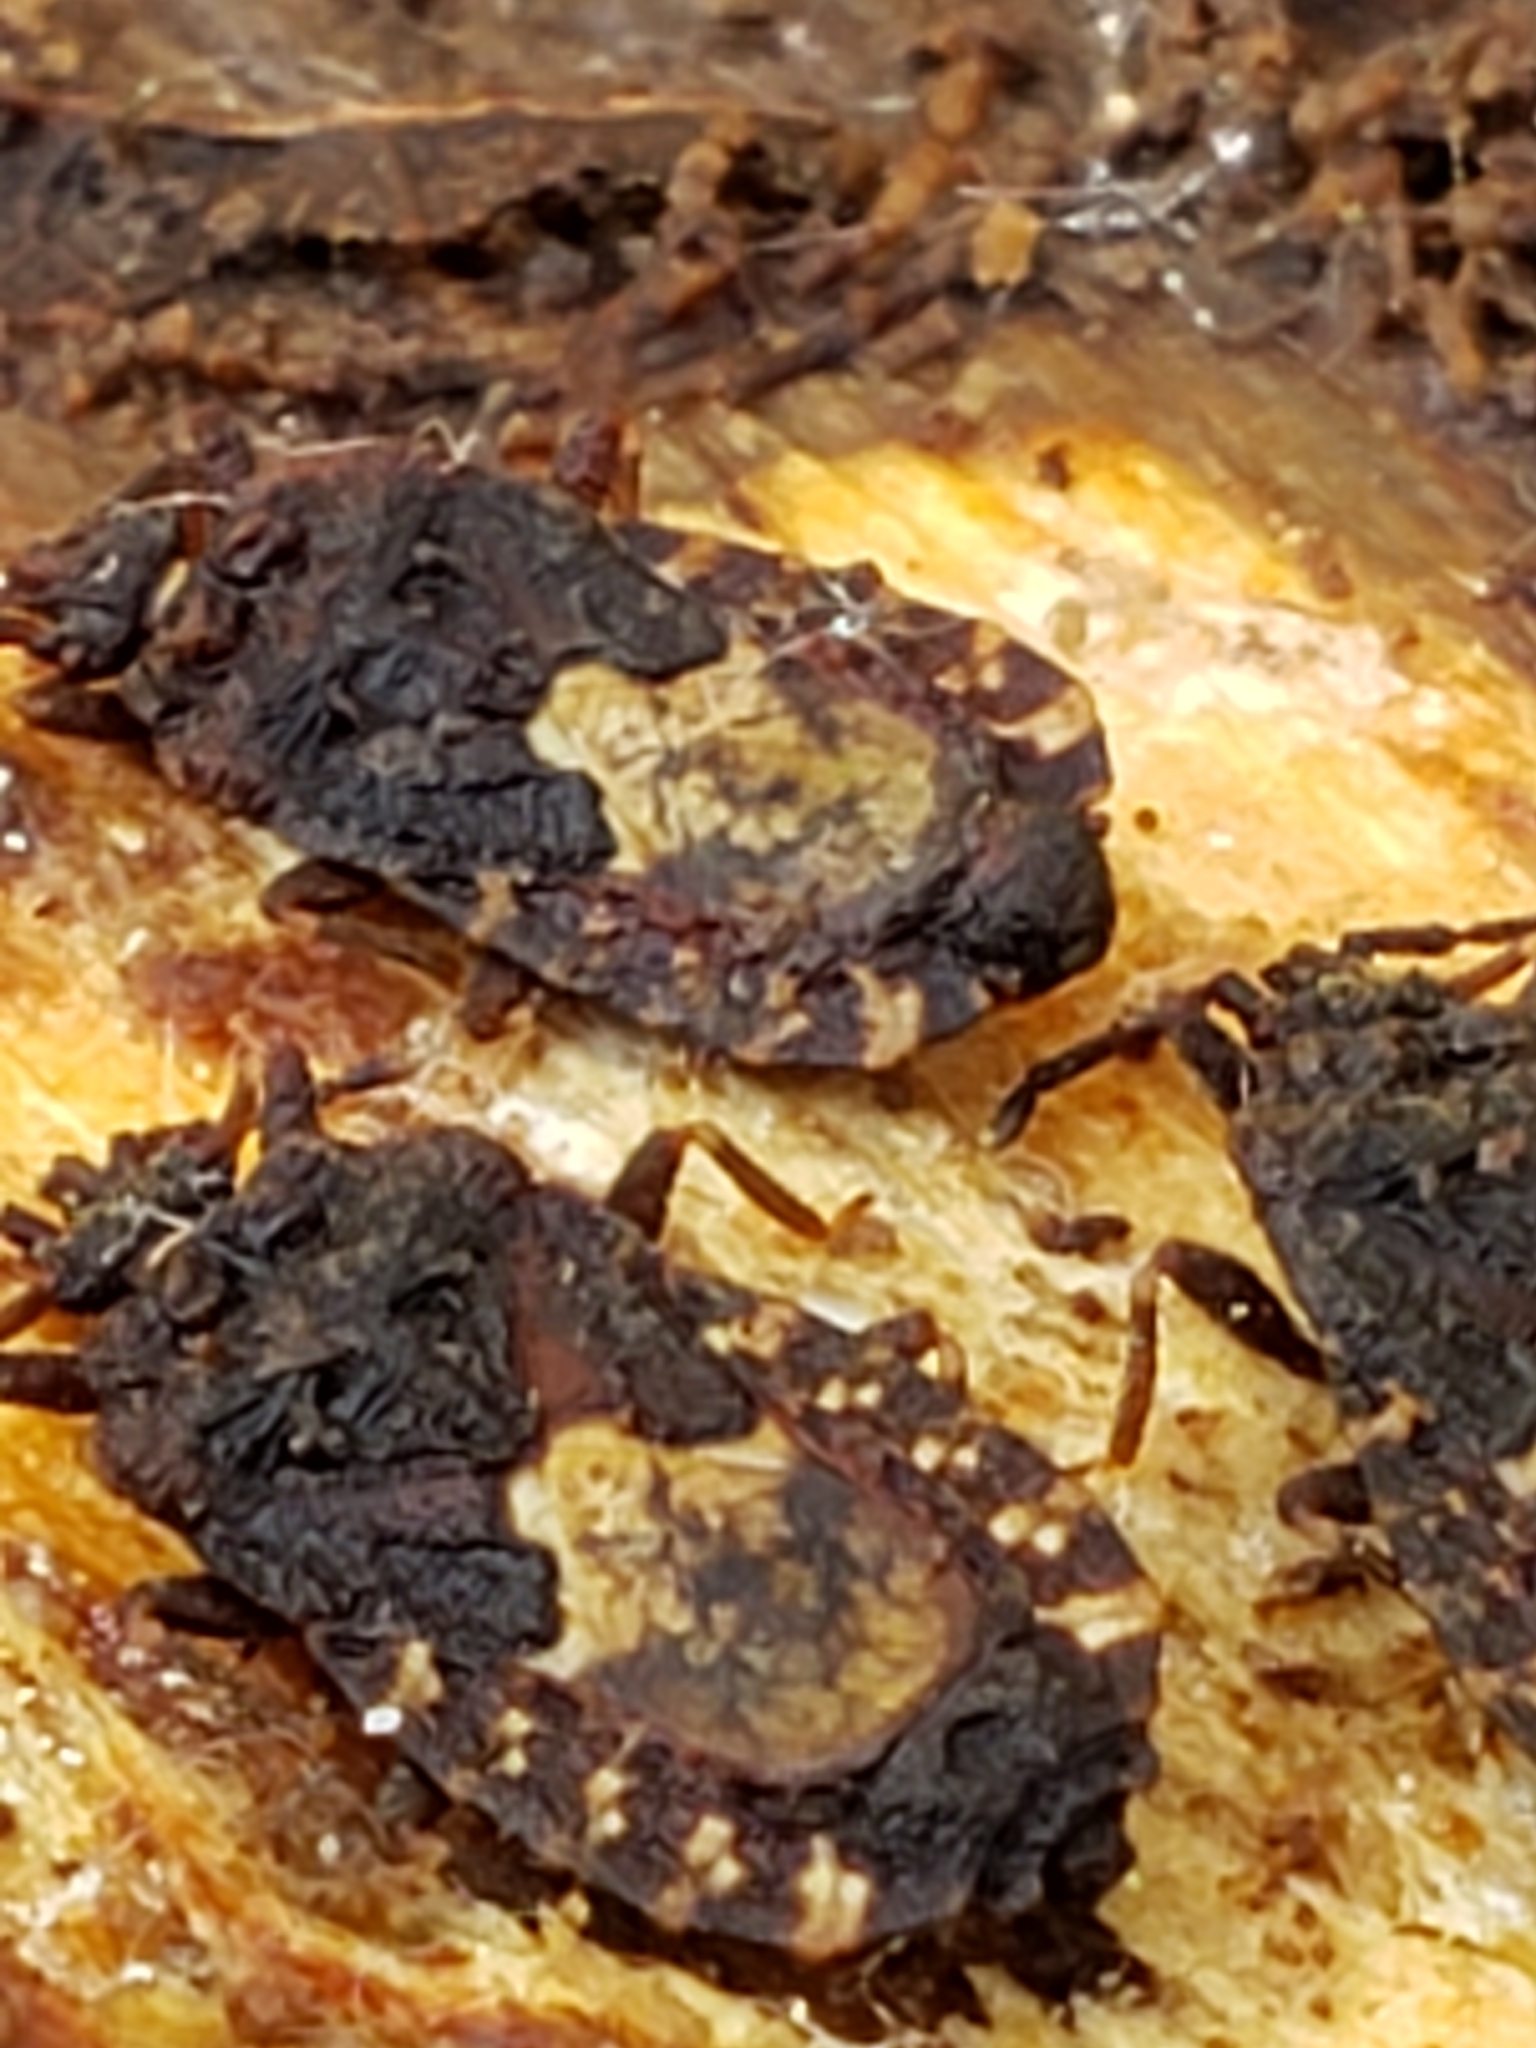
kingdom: Animalia
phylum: Arthropoda
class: Insecta
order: Hemiptera
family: Aradidae
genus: Mezira
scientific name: Mezira
